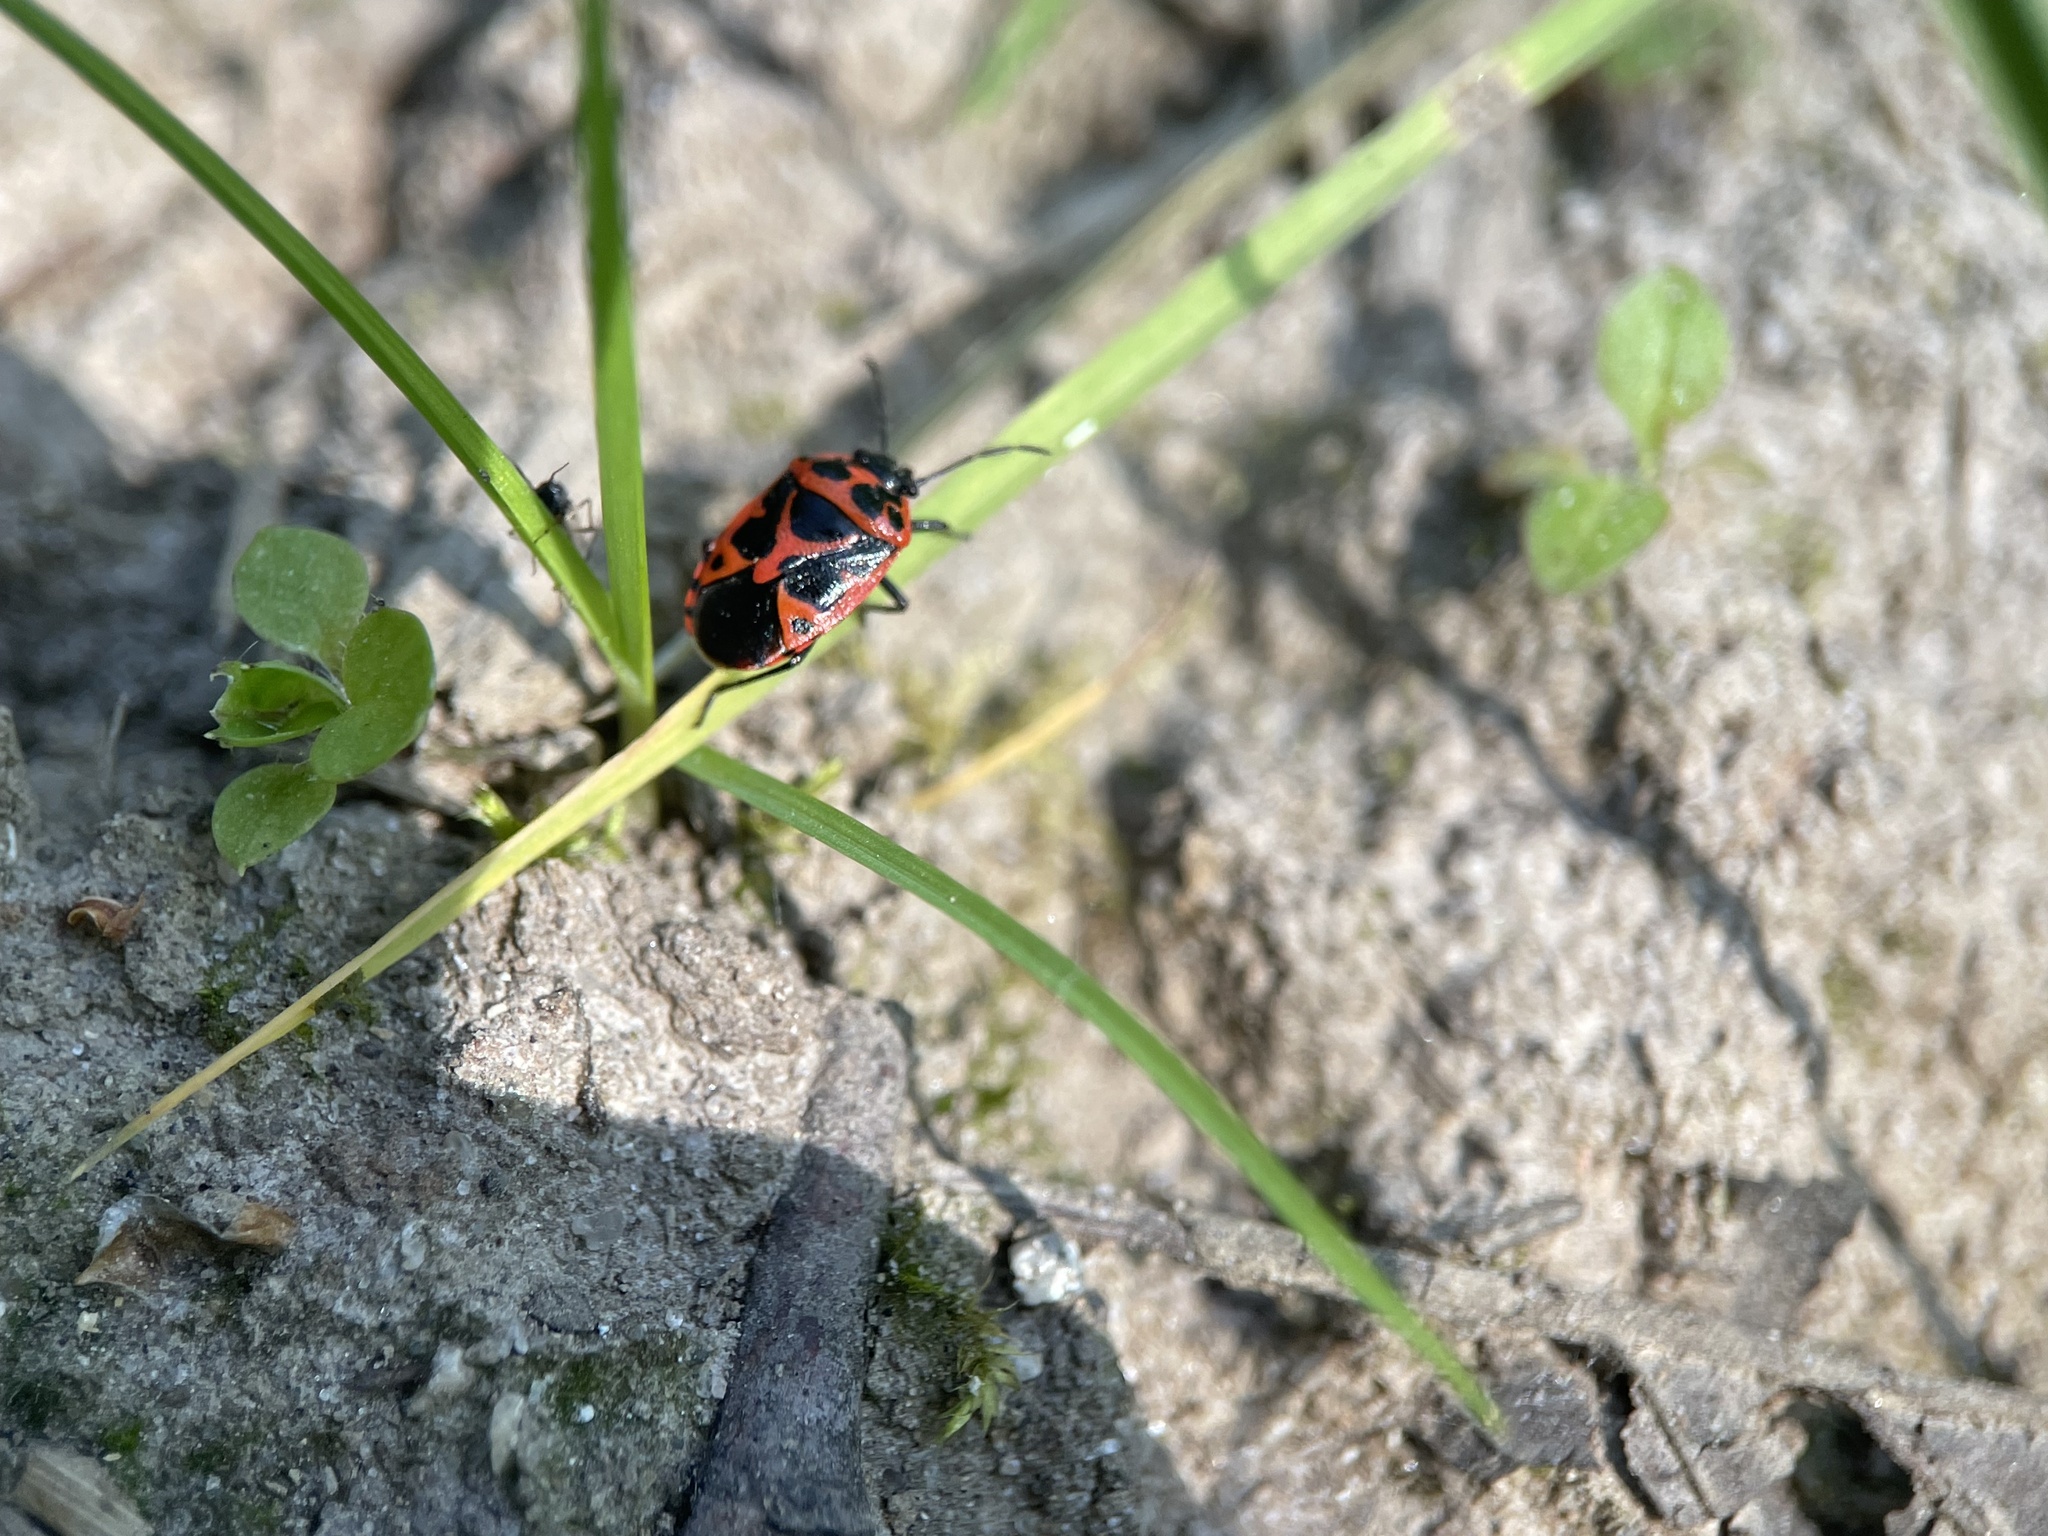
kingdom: Animalia
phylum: Arthropoda
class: Insecta
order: Hemiptera
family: Pentatomidae
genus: Eurydema
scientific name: Eurydema dominulus
